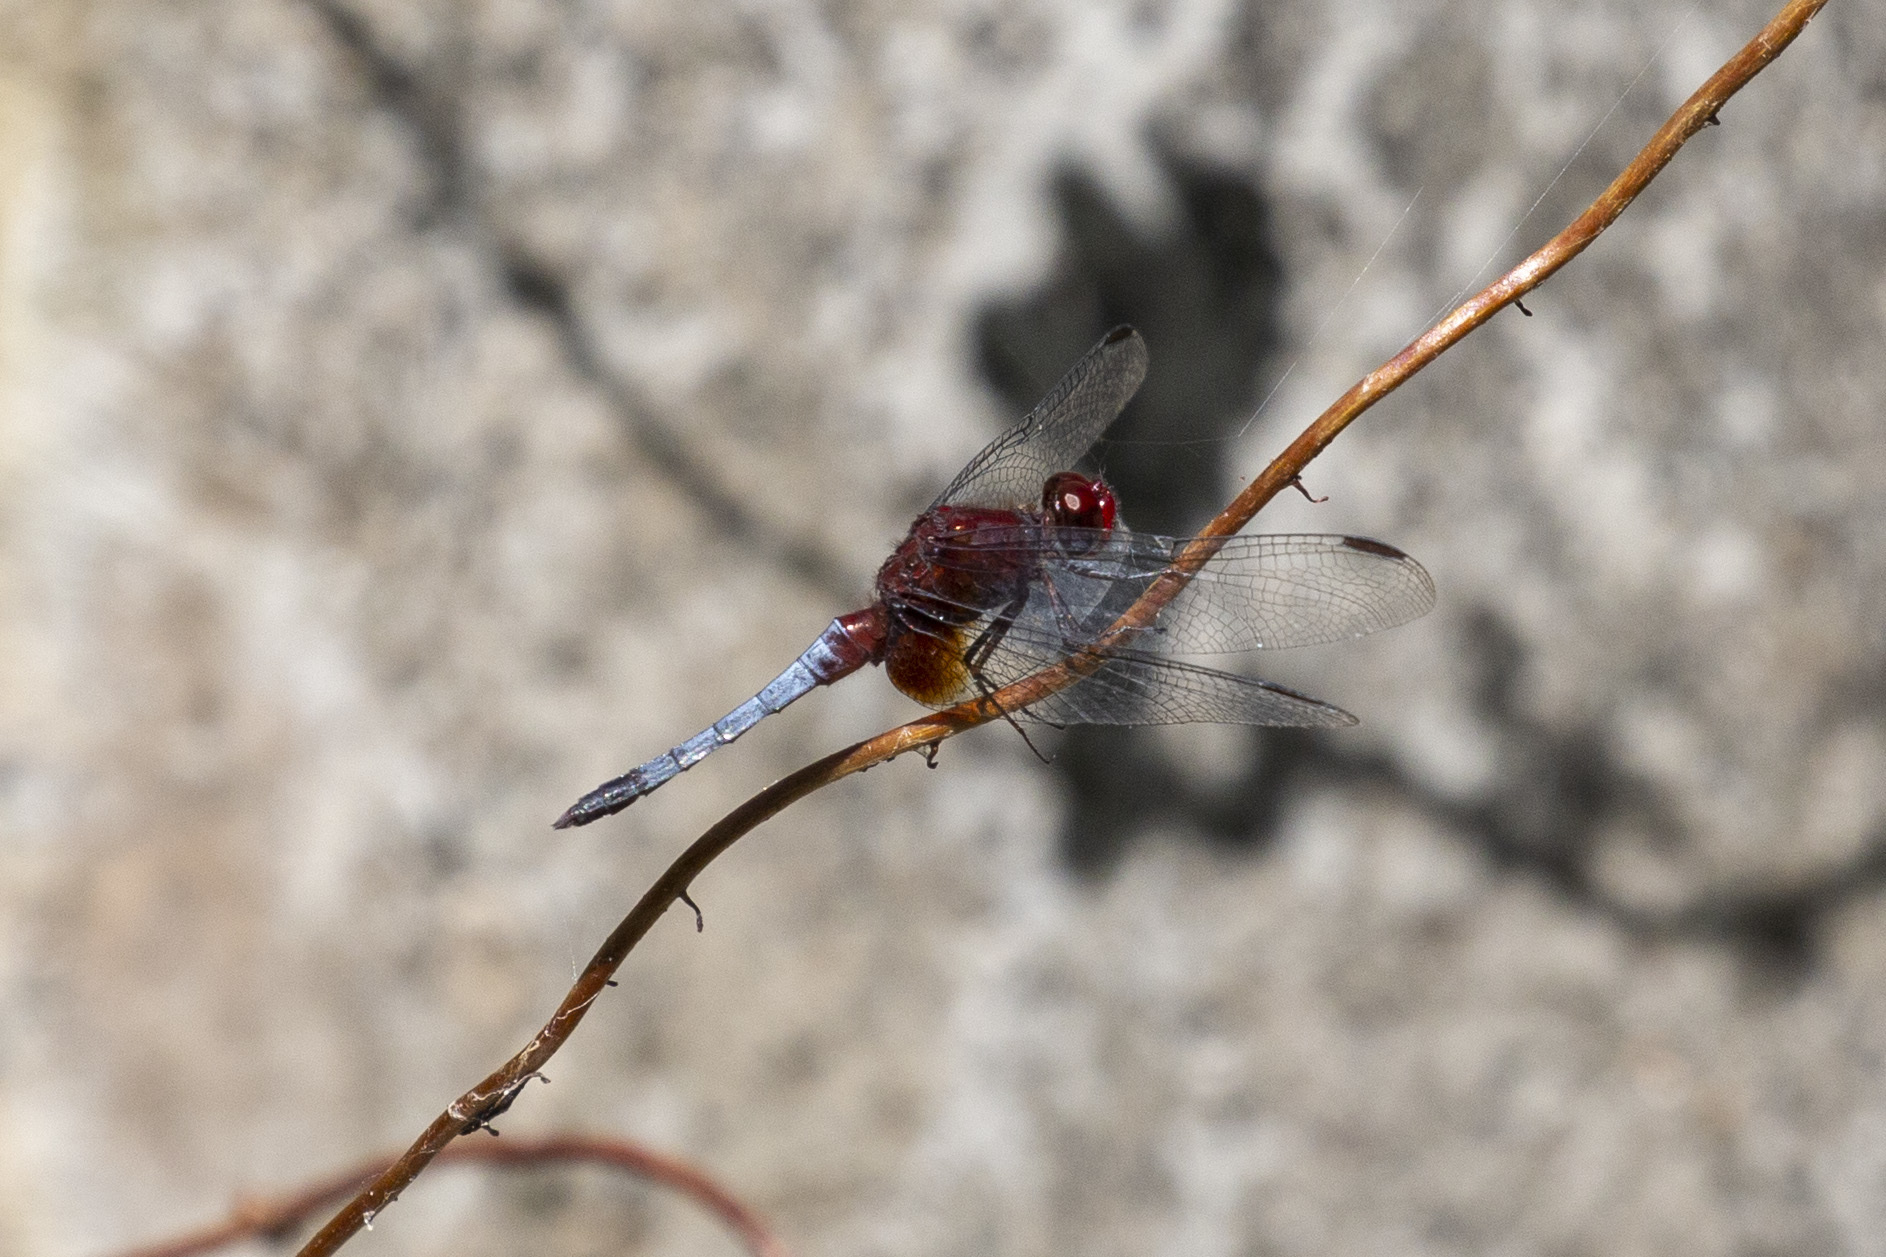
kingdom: Animalia
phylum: Arthropoda
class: Insecta
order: Odonata
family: Libellulidae
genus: Erythrodiplax
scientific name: Erythrodiplax fusca
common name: Red-faced dragonlet
